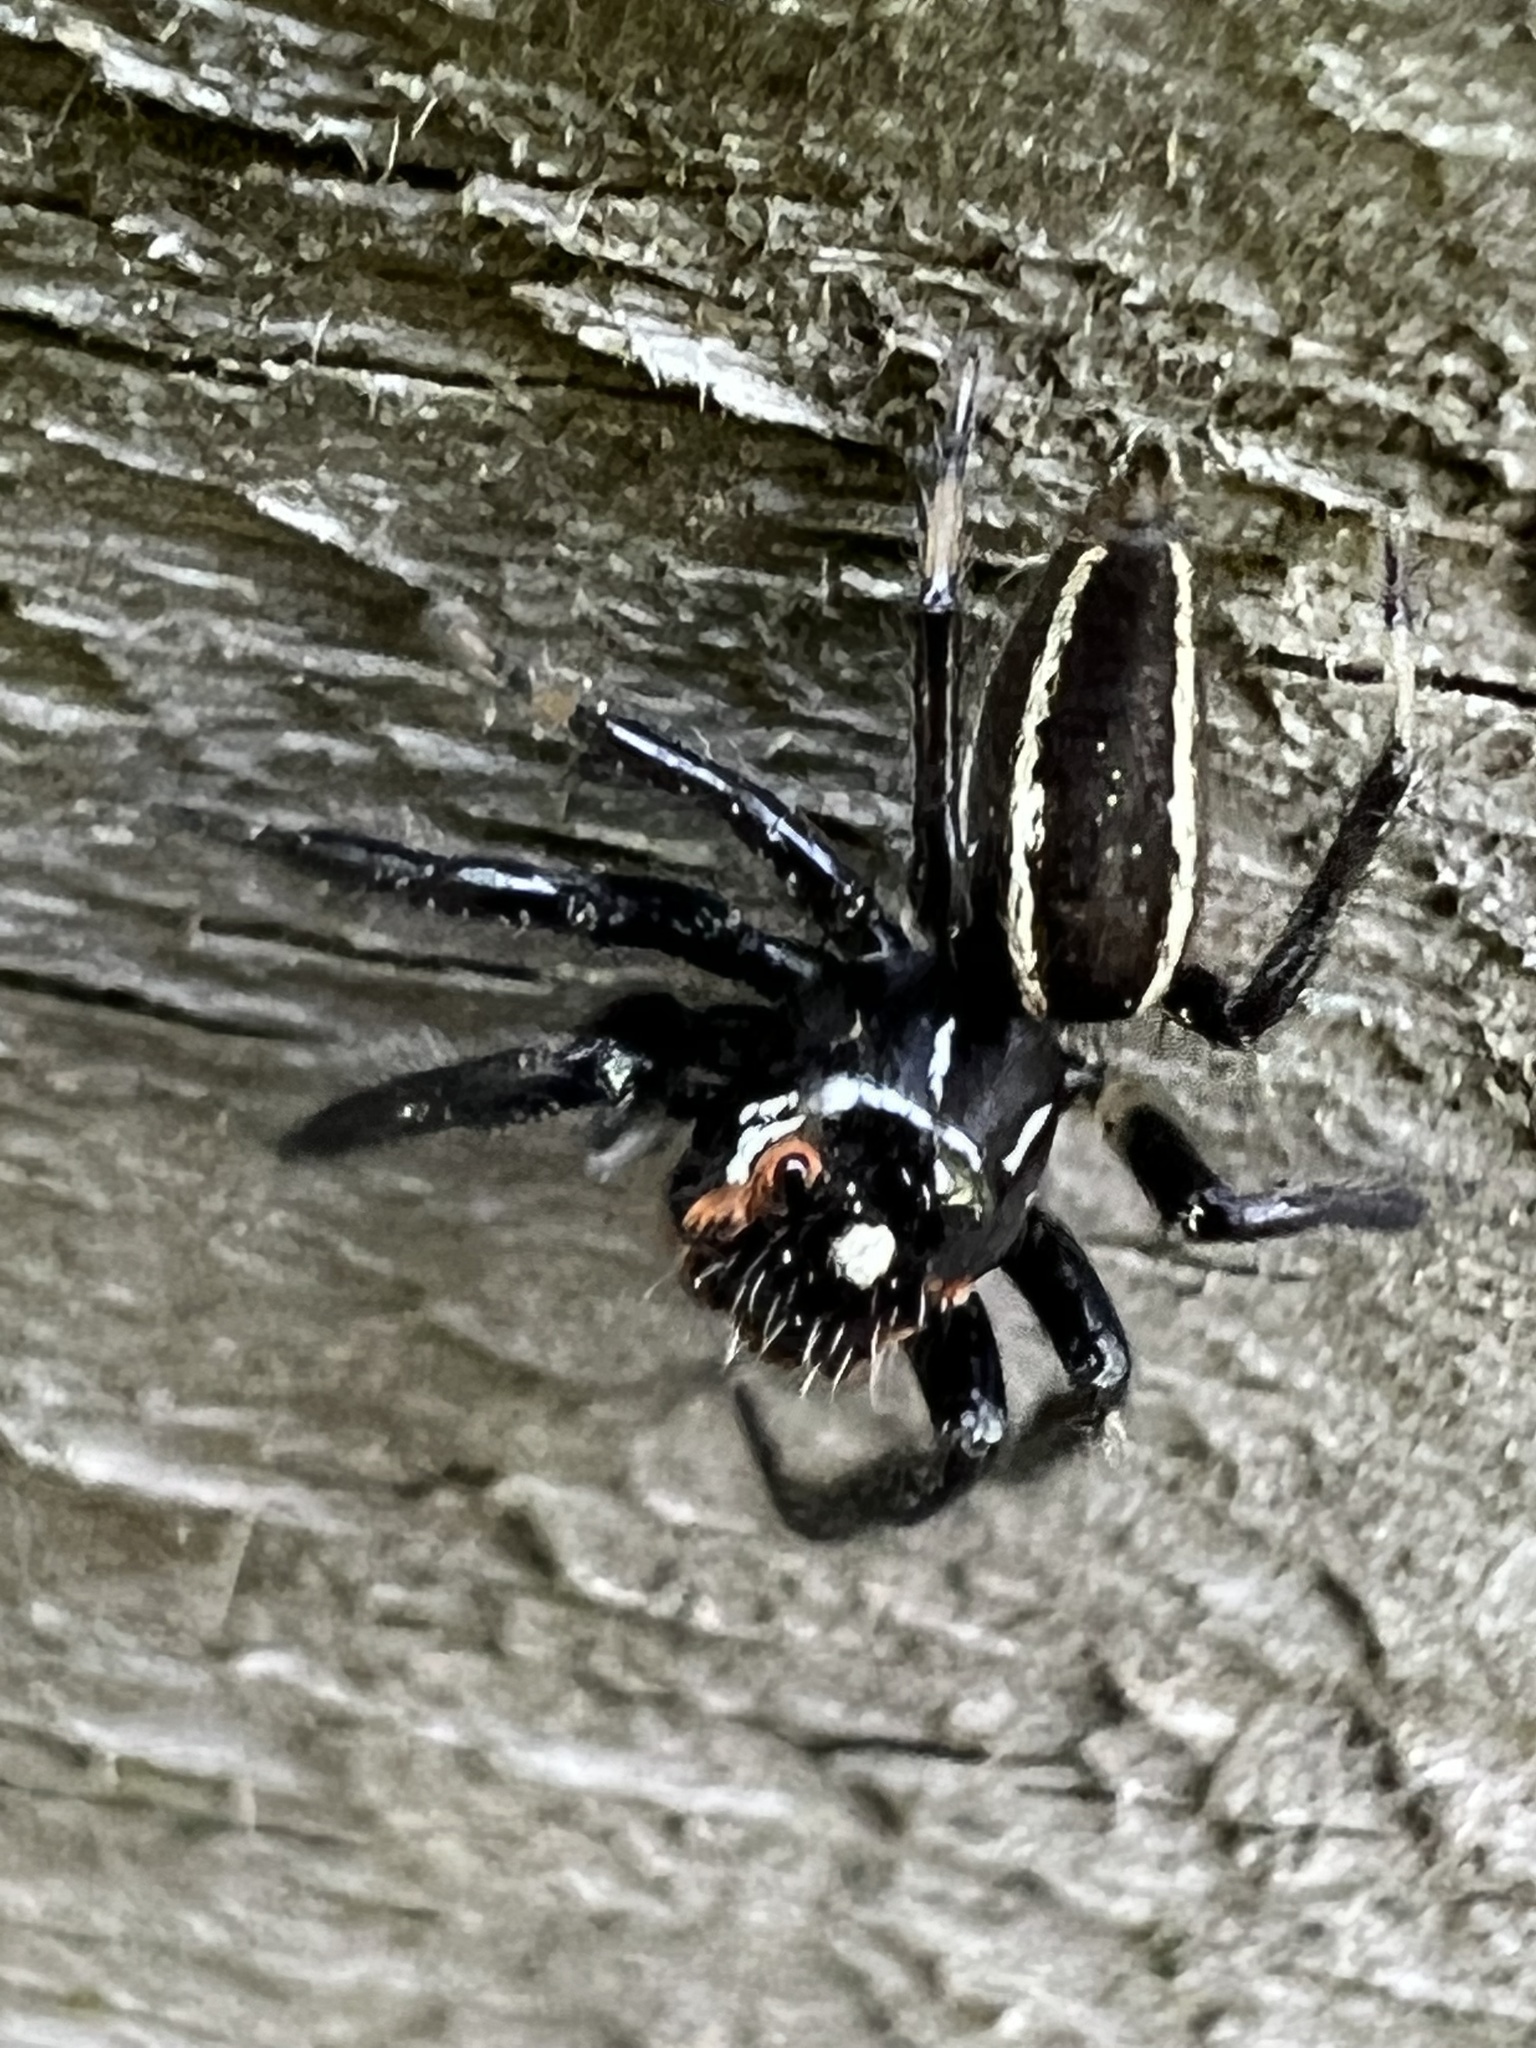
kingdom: Animalia
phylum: Arthropoda
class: Arachnida
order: Araneae
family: Salticidae
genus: Colonus
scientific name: Colonus sylvanus
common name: Jumping spiders
